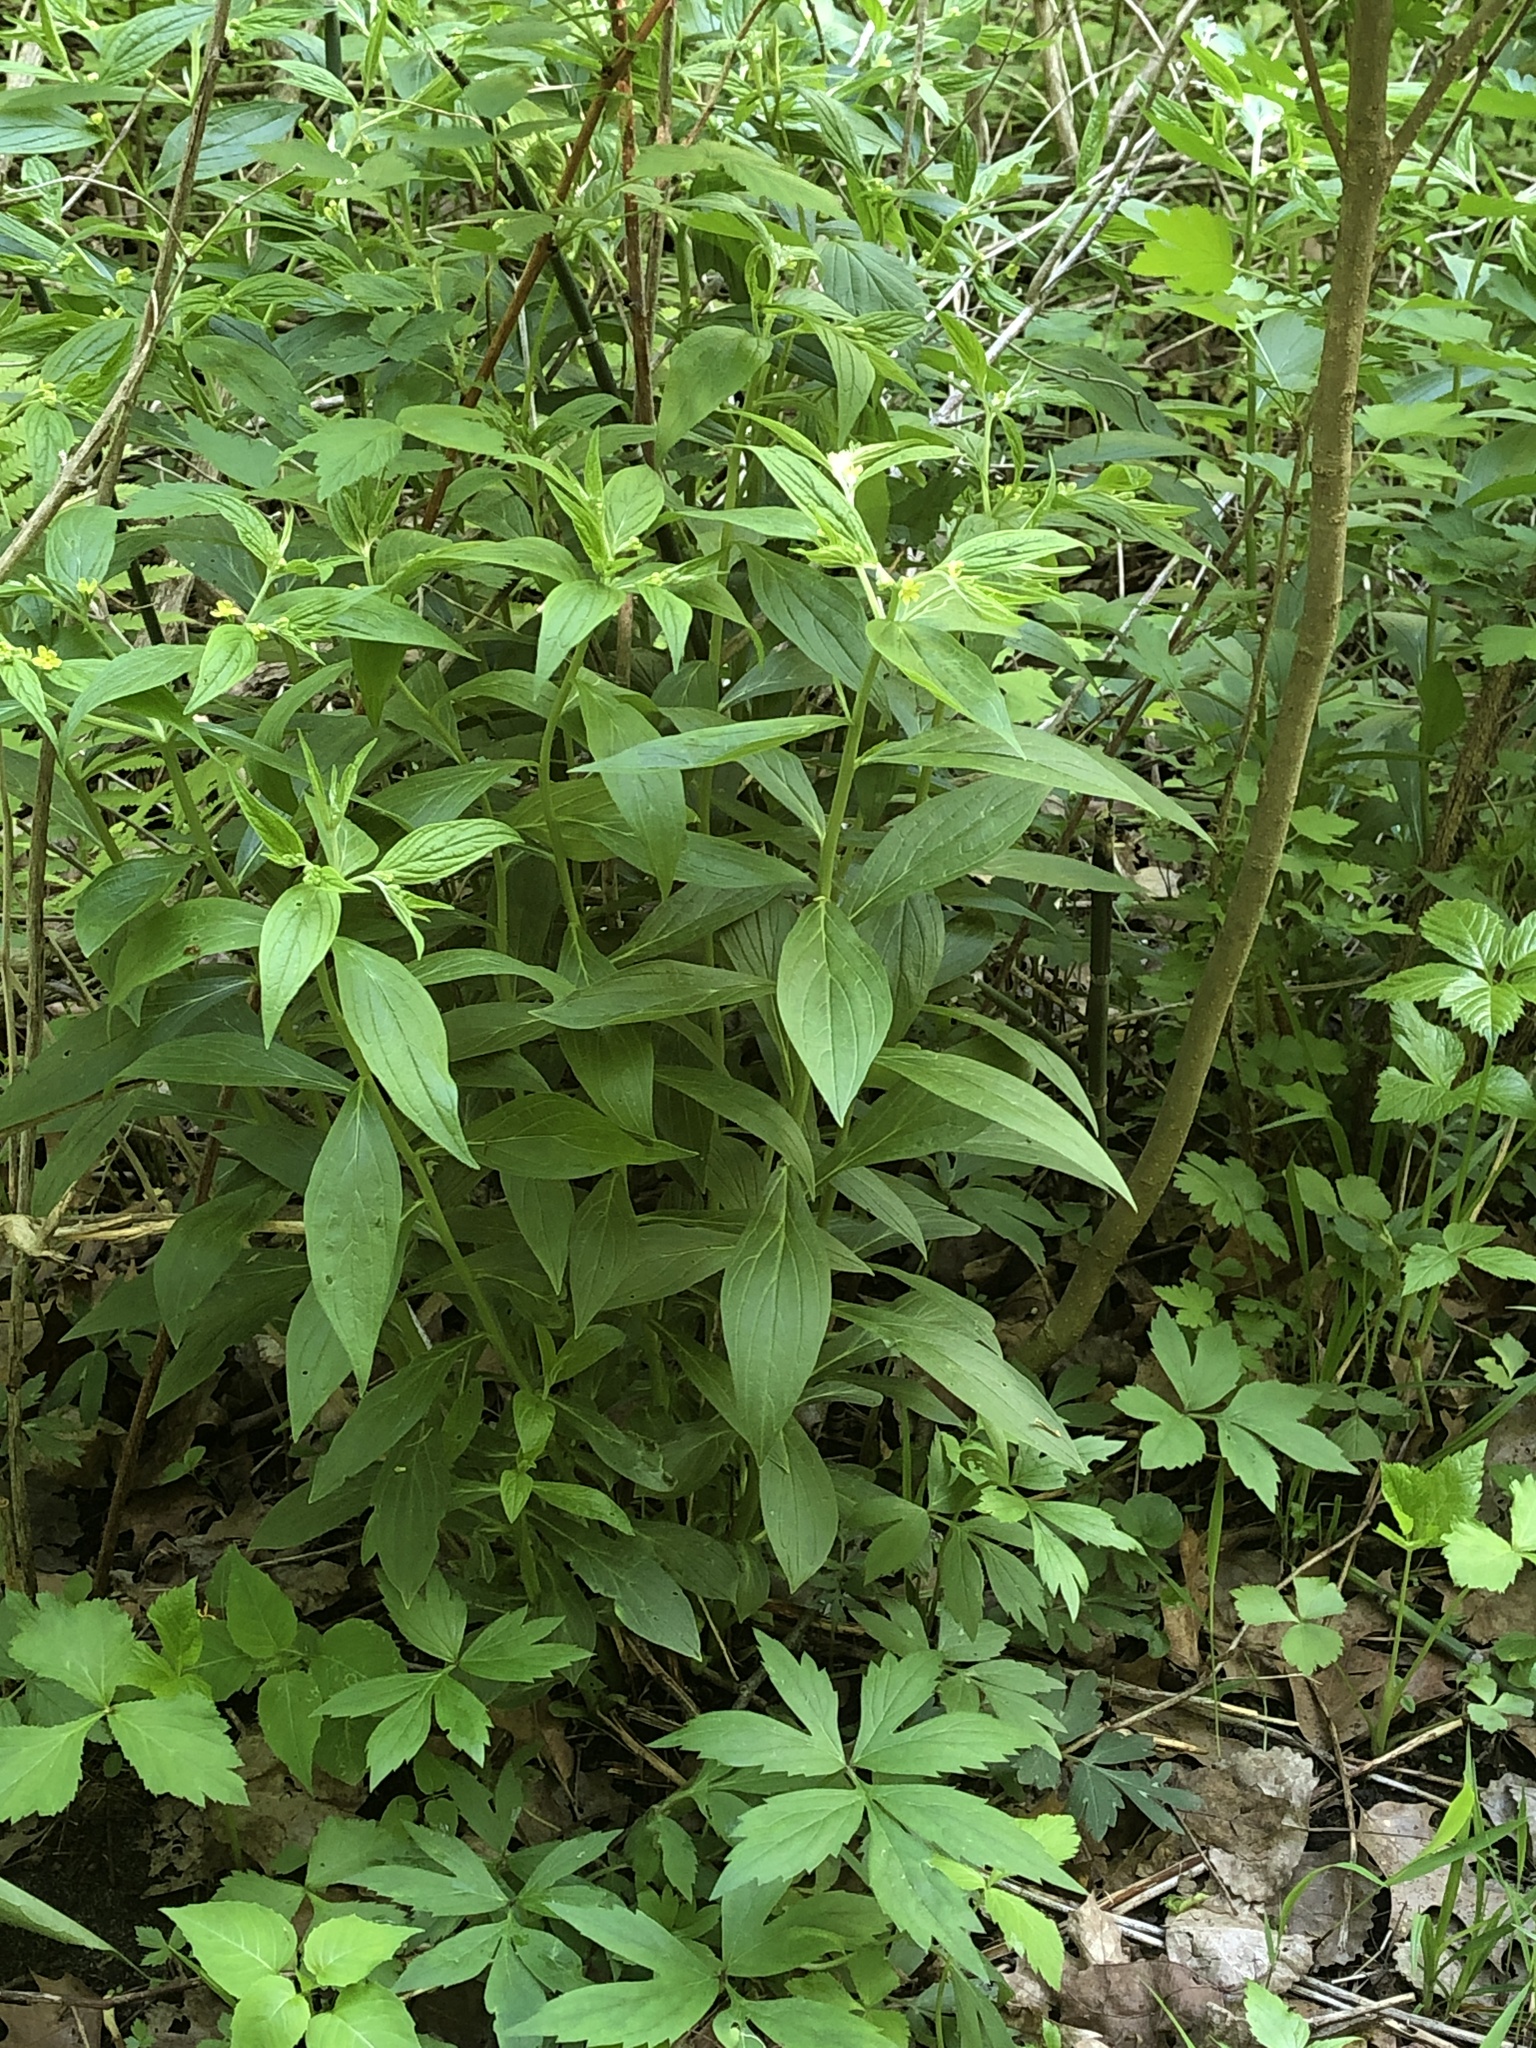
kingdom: Plantae
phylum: Tracheophyta
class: Magnoliopsida
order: Boraginales
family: Boraginaceae
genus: Lithospermum
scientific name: Lithospermum latifolium
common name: American gromwell
